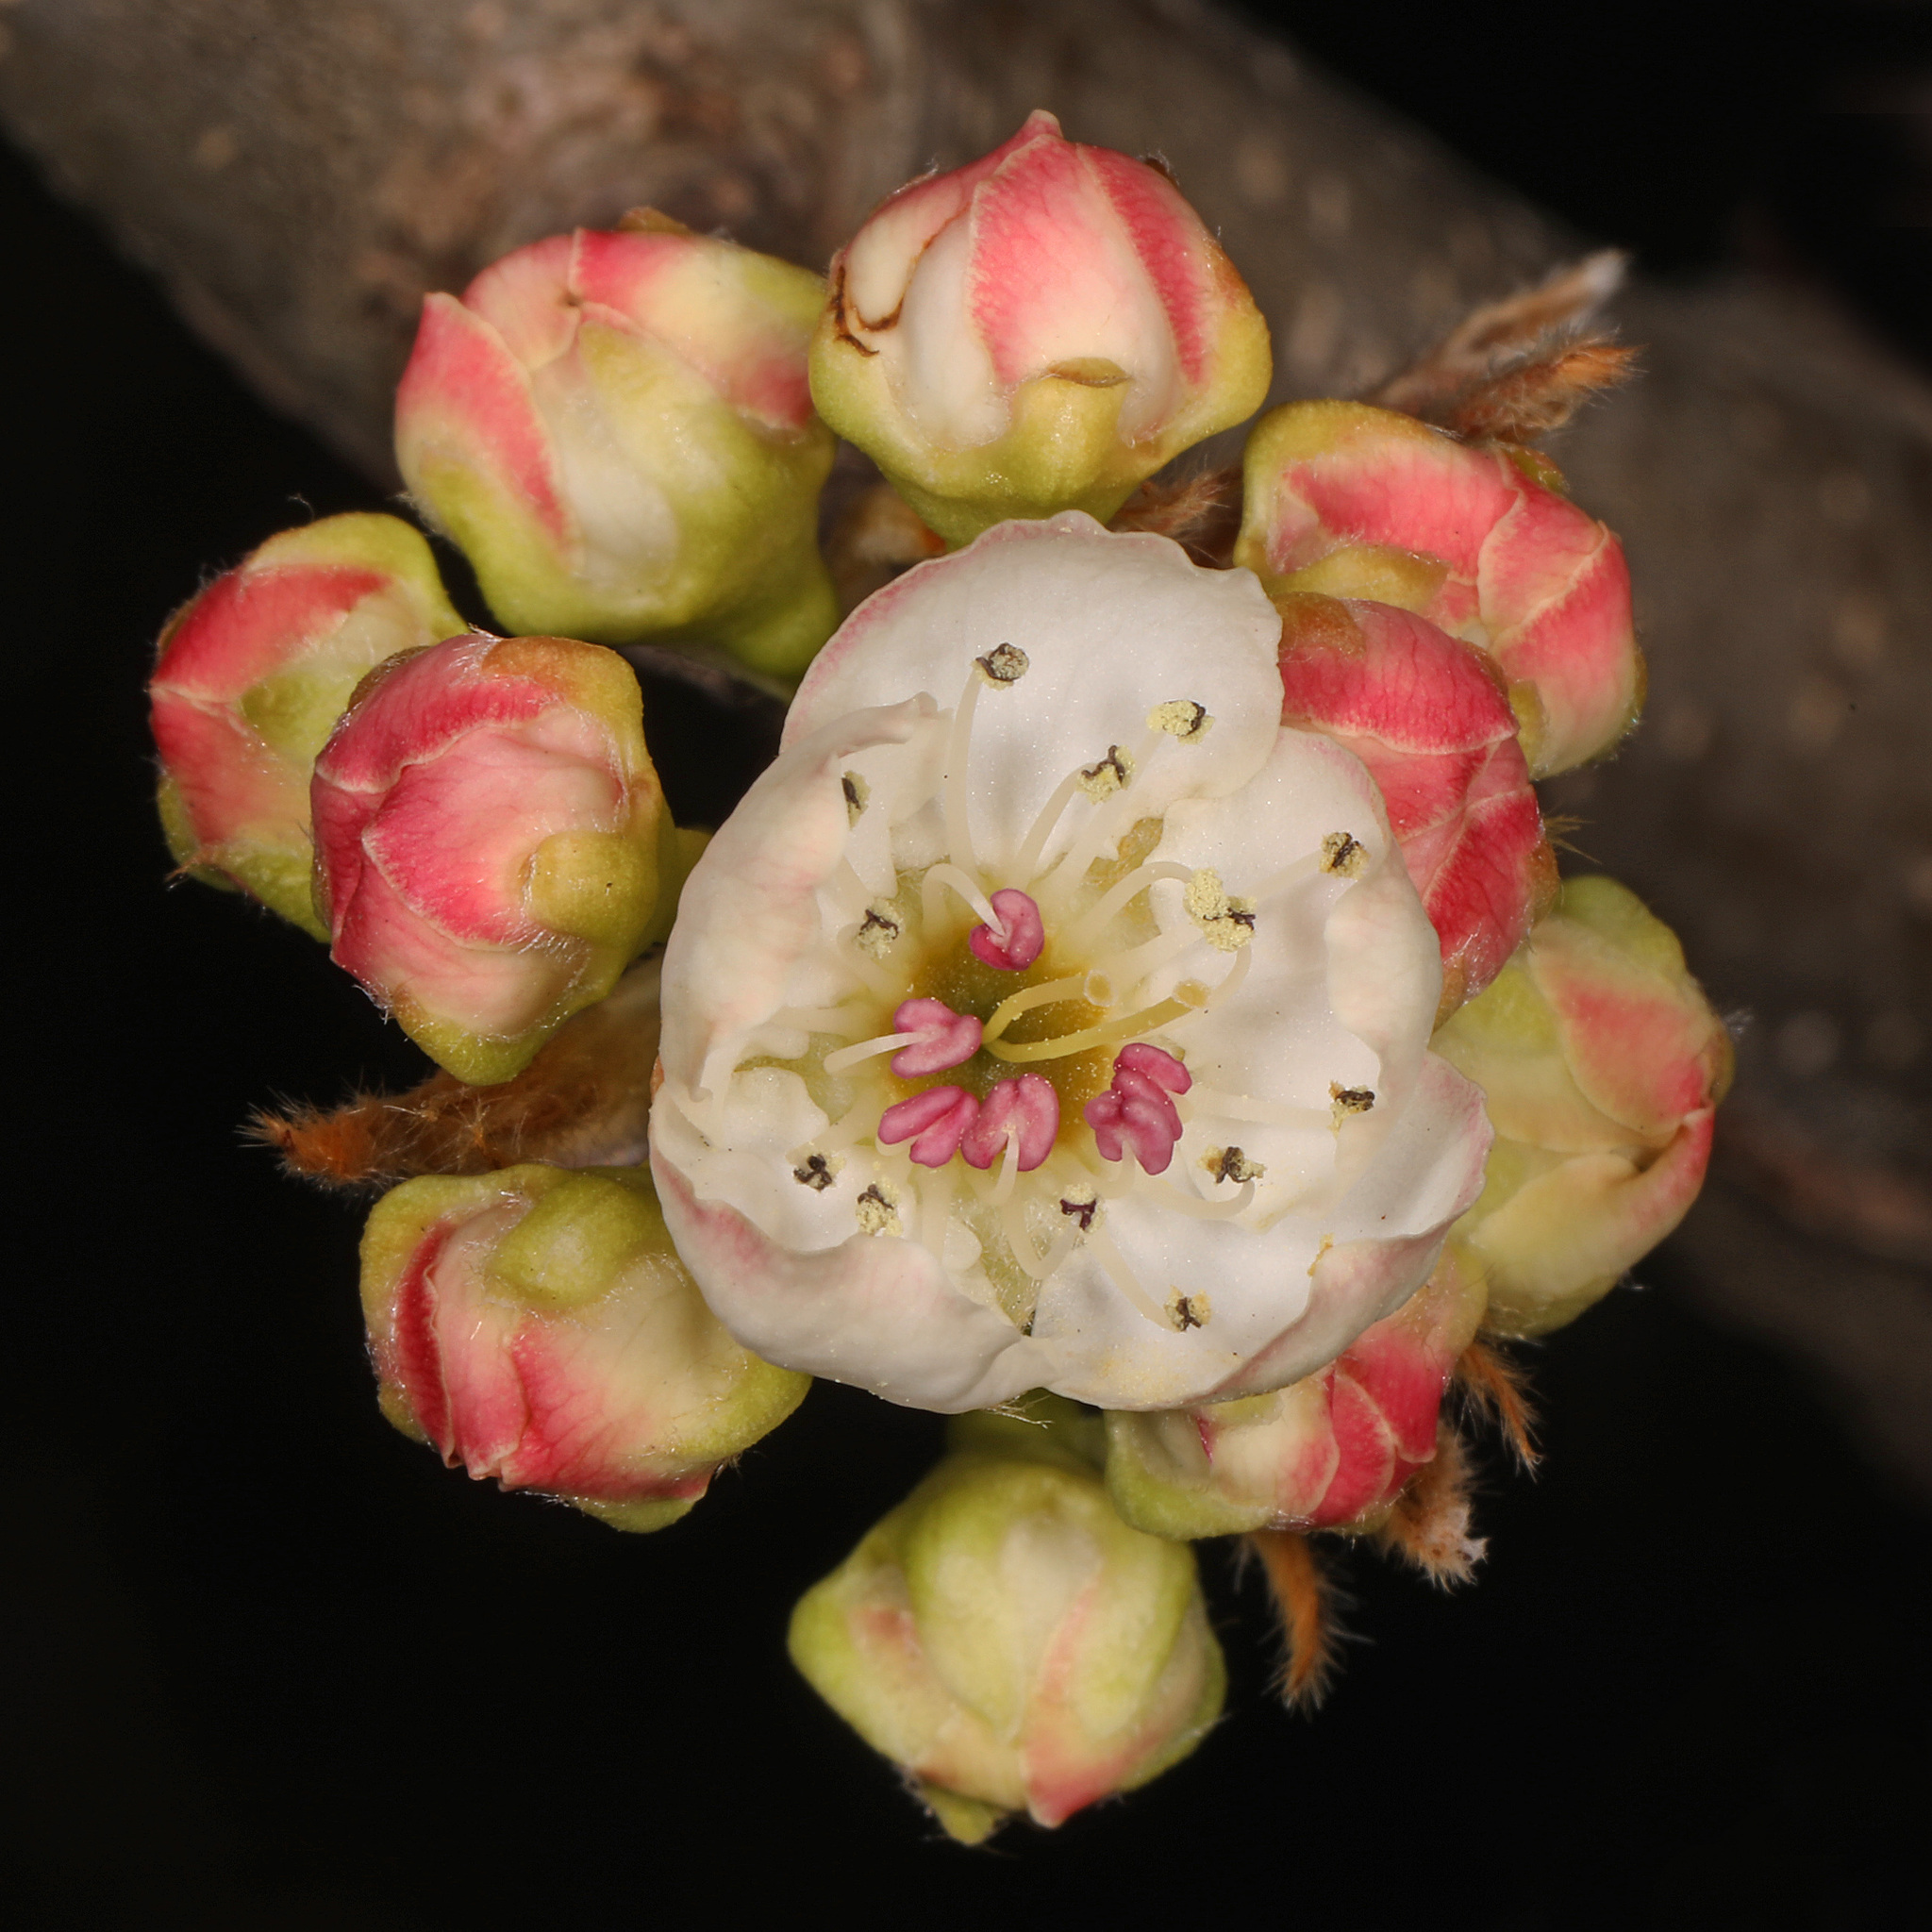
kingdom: Plantae
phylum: Tracheophyta
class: Magnoliopsida
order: Rosales
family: Rosaceae
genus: Pyrus
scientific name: Pyrus calleryana
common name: Callery pear
